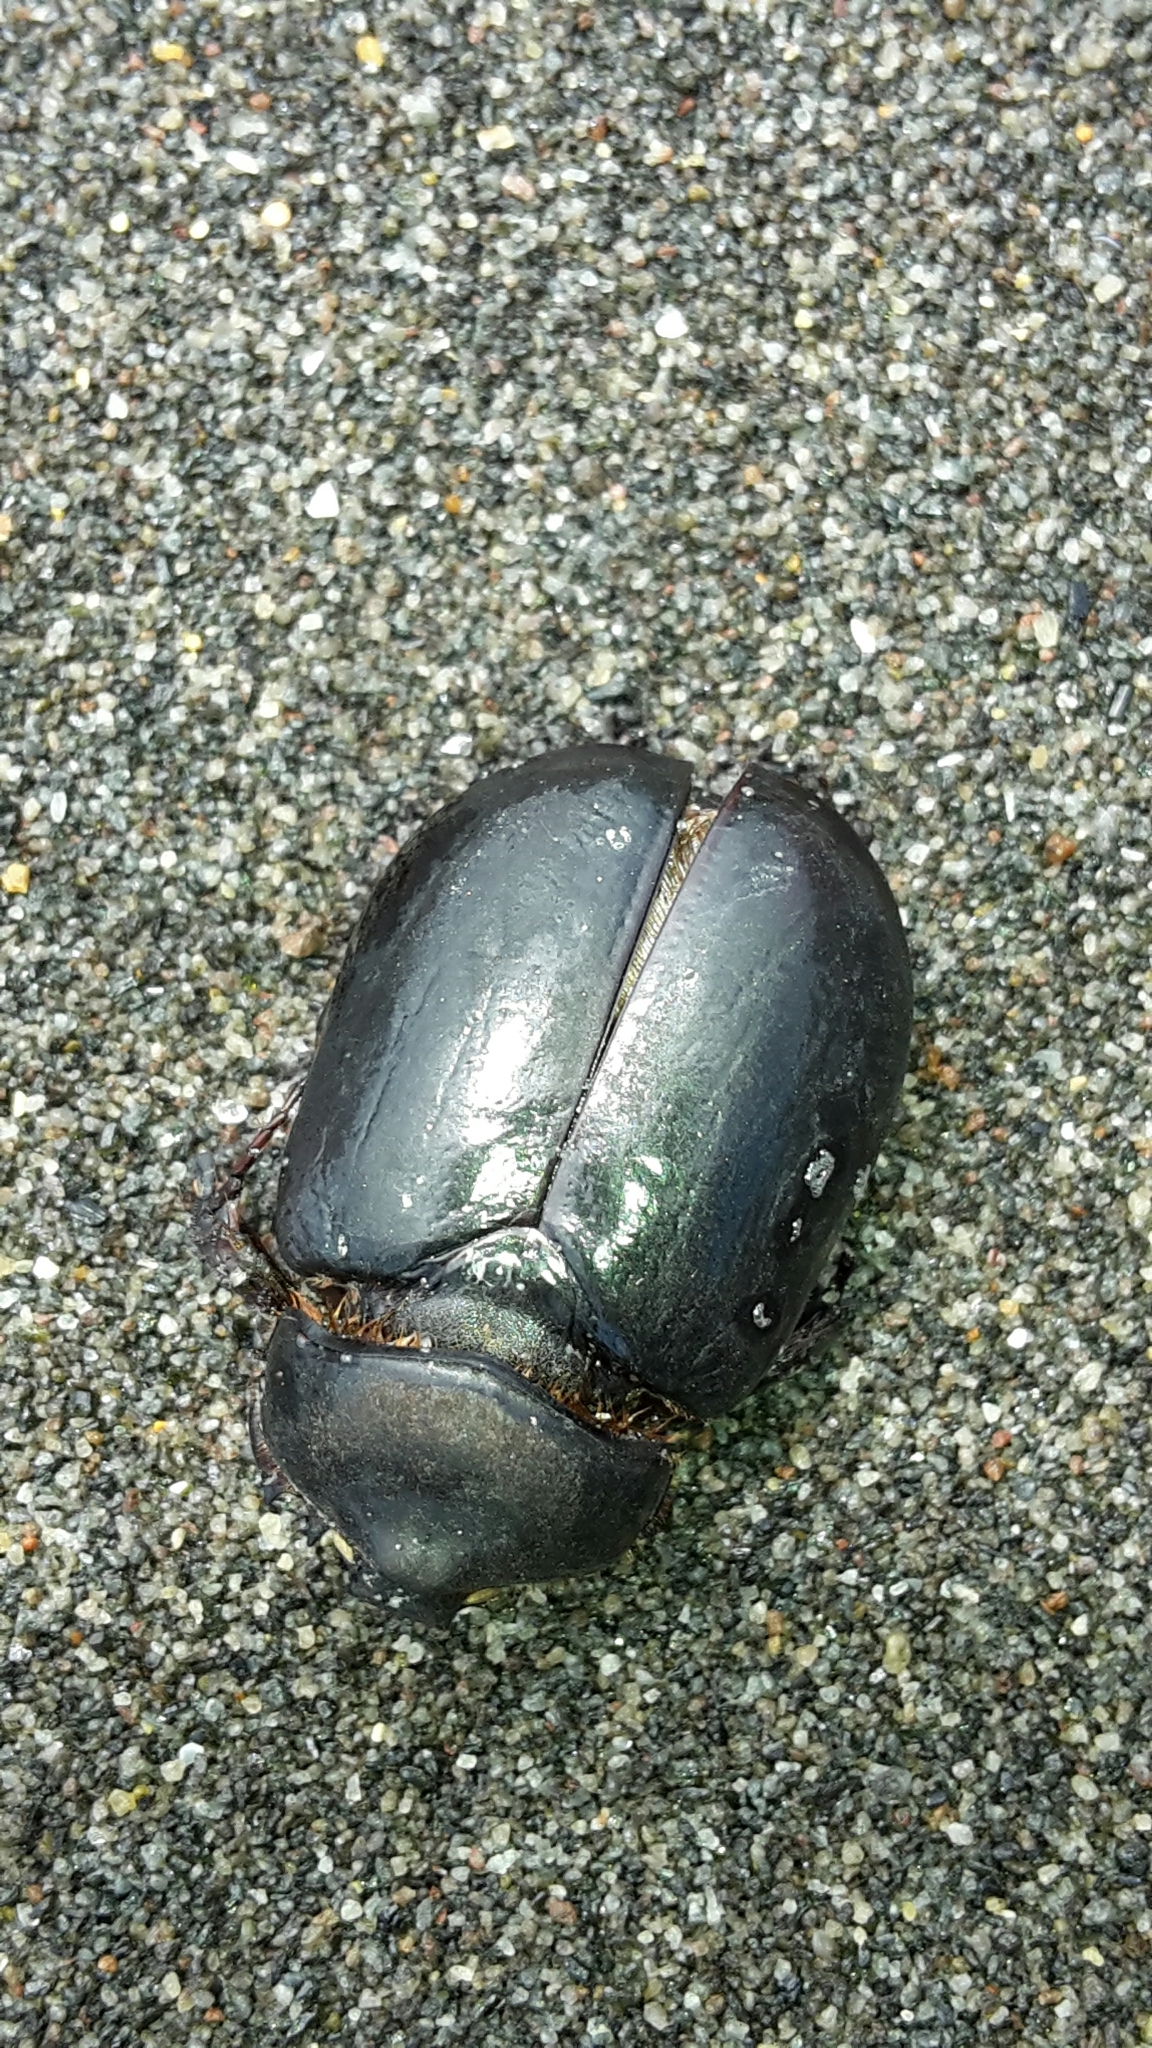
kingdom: Animalia
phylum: Arthropoda
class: Insecta
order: Coleoptera
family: Scarabaeidae
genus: Pericoptus
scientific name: Pericoptus truncatus
